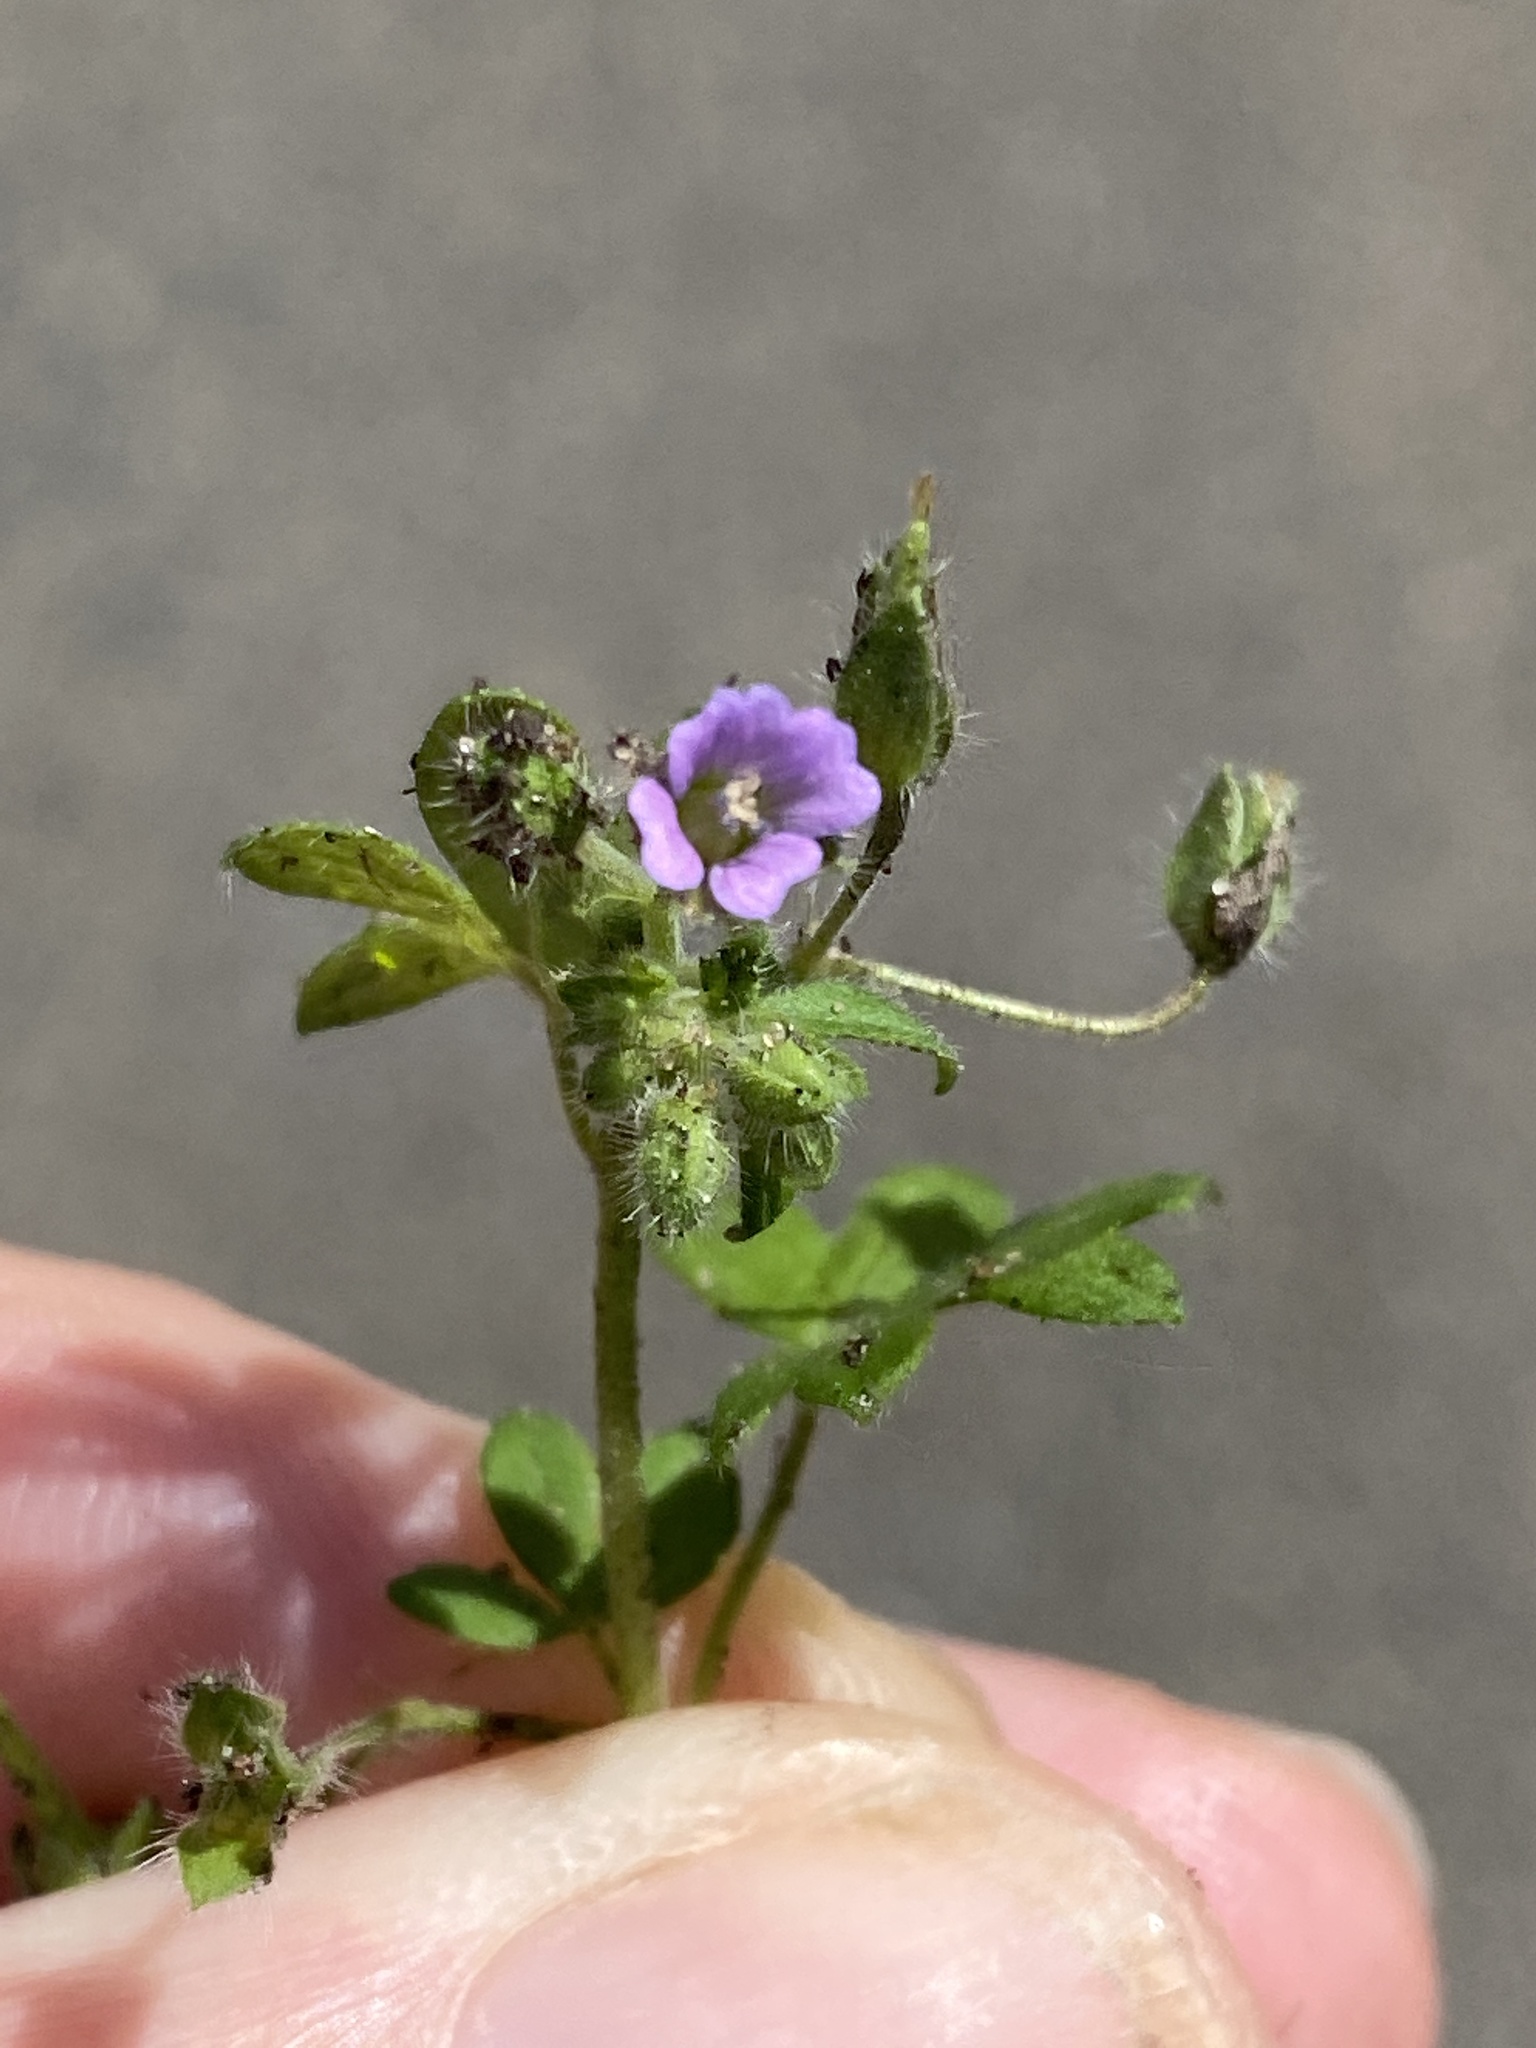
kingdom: Plantae
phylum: Tracheophyta
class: Magnoliopsida
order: Geraniales
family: Geraniaceae
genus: Geranium
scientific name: Geranium pusillum
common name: Small geranium
